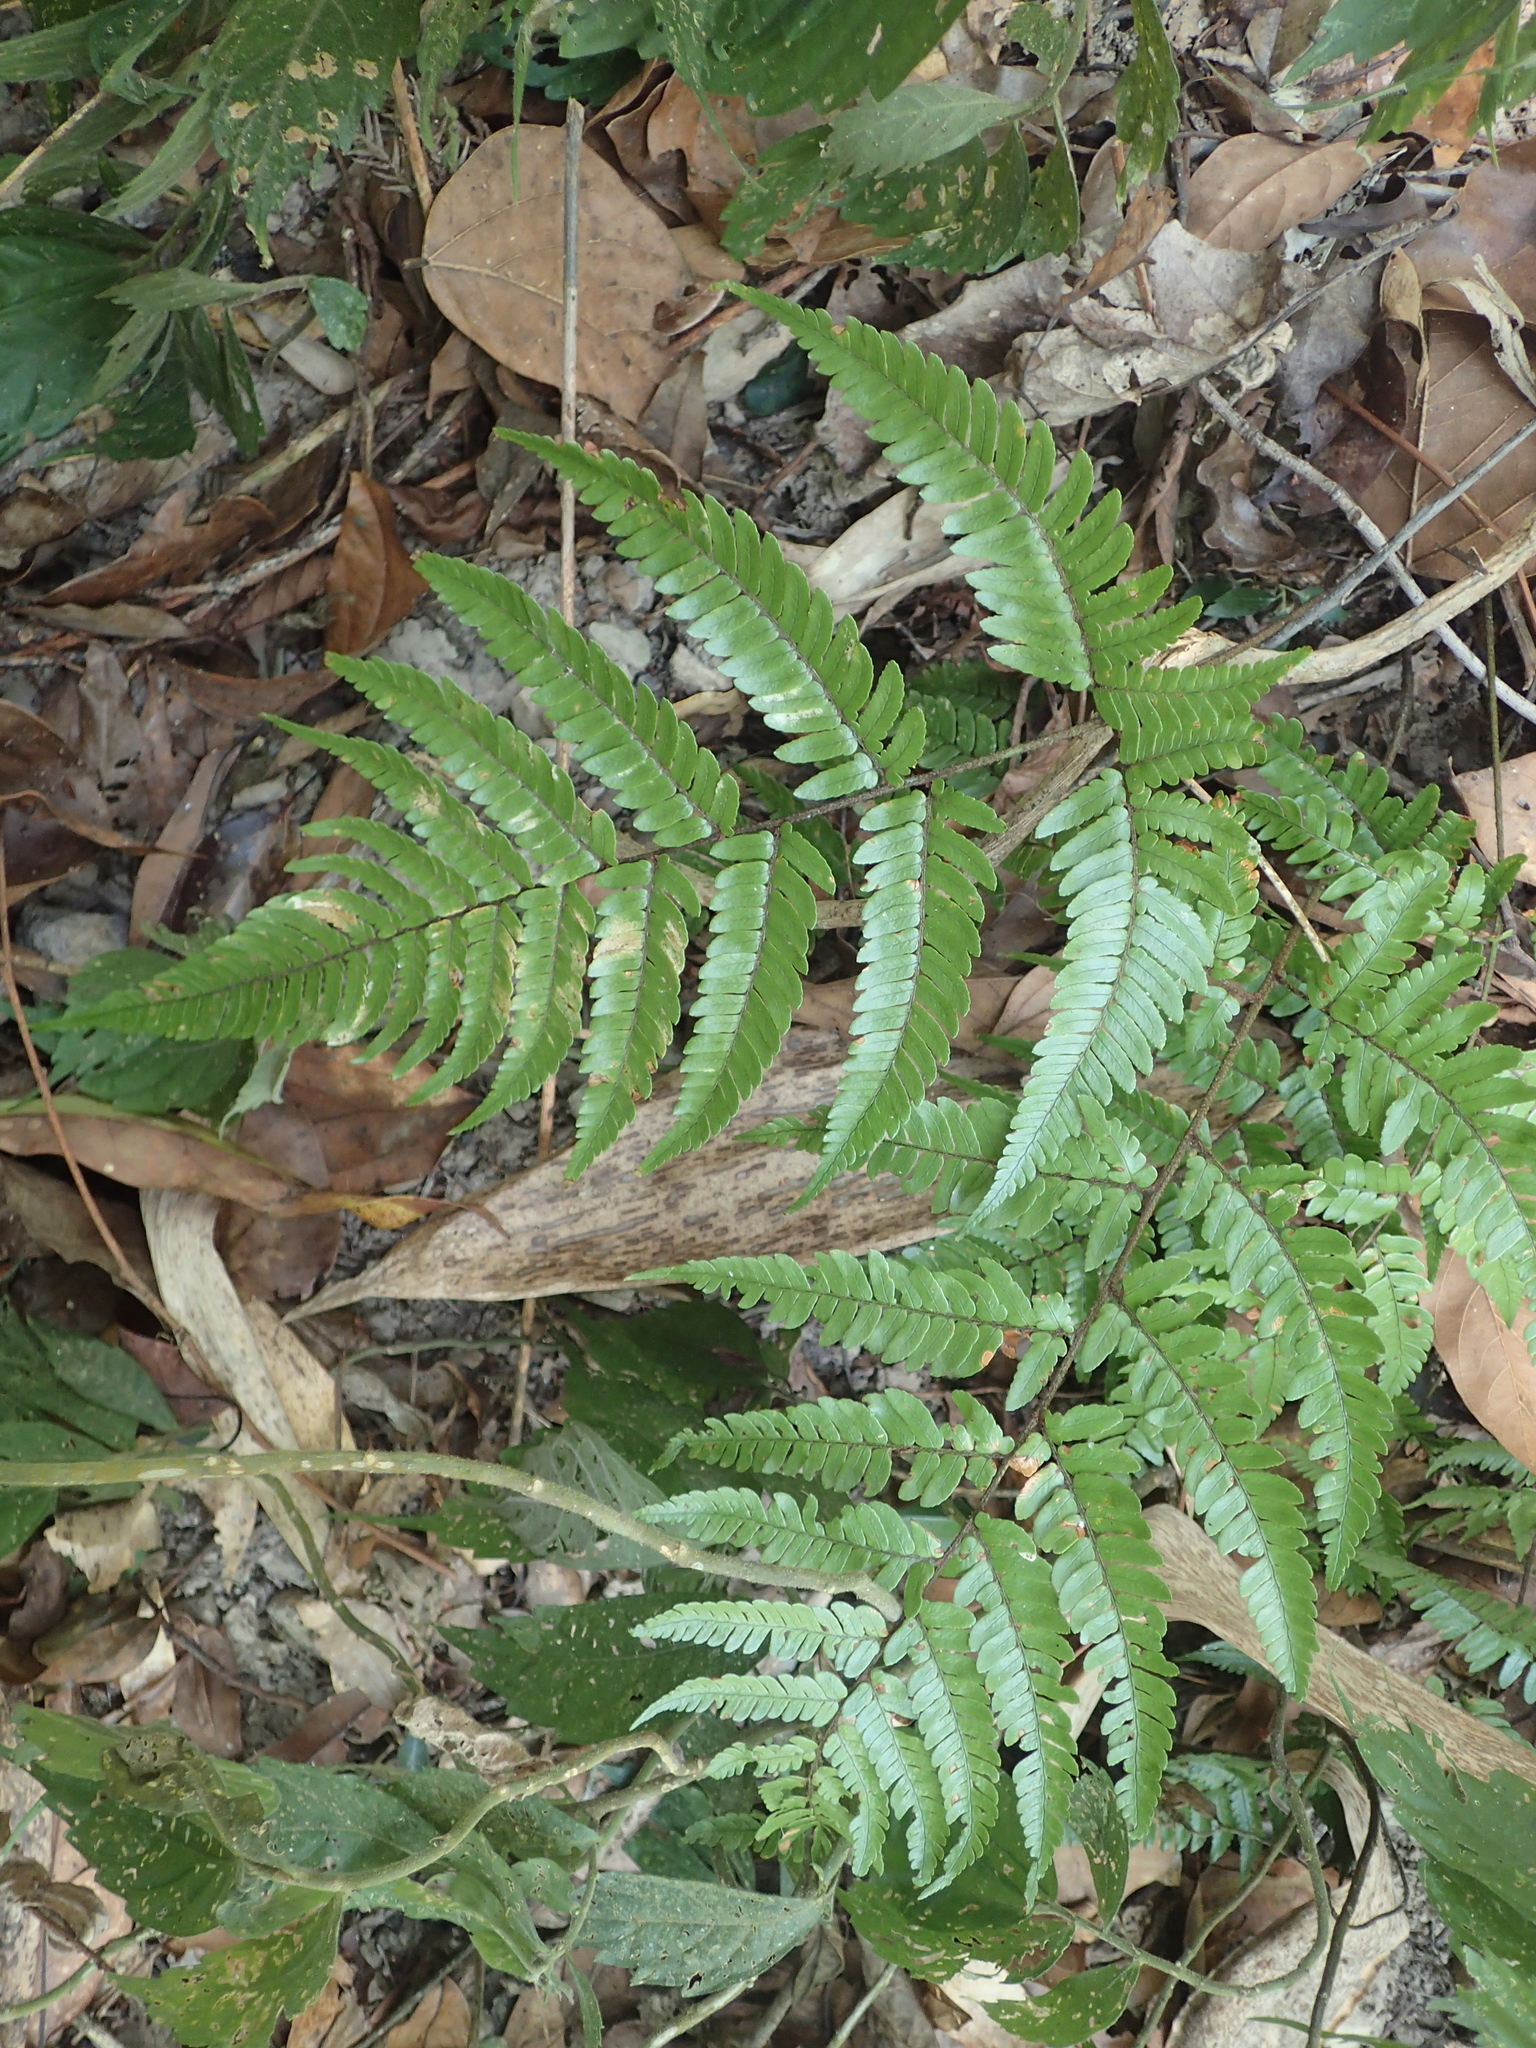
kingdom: Plantae
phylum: Tracheophyta
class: Polypodiopsida
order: Polypodiales
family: Dryopteridaceae
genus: Dryopteris
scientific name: Dryopteris sordidipes
